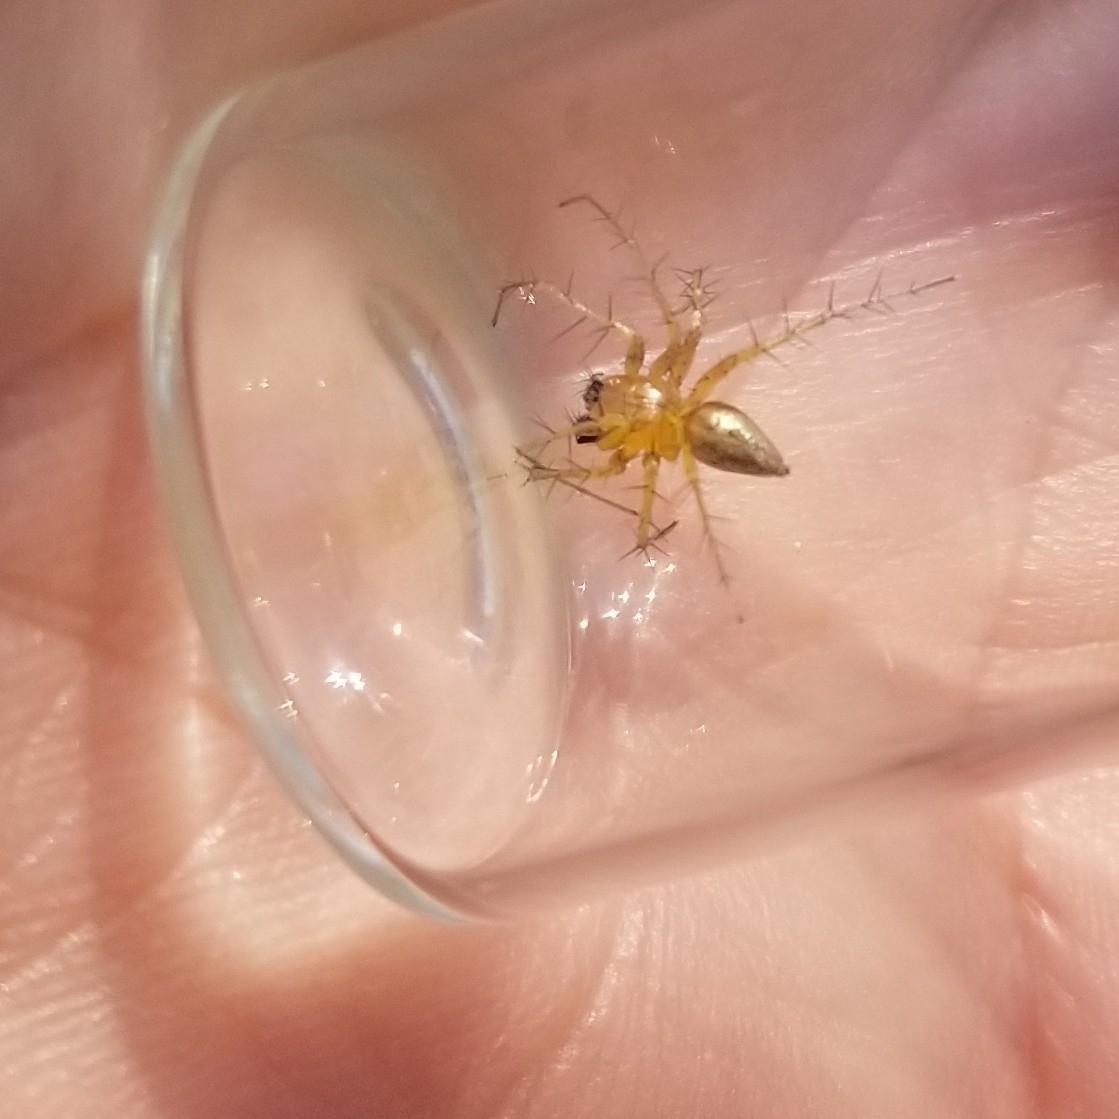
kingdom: Animalia
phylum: Arthropoda
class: Arachnida
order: Araneae
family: Oxyopidae
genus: Oxyopes
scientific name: Oxyopes salticus
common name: Lynx spiders
